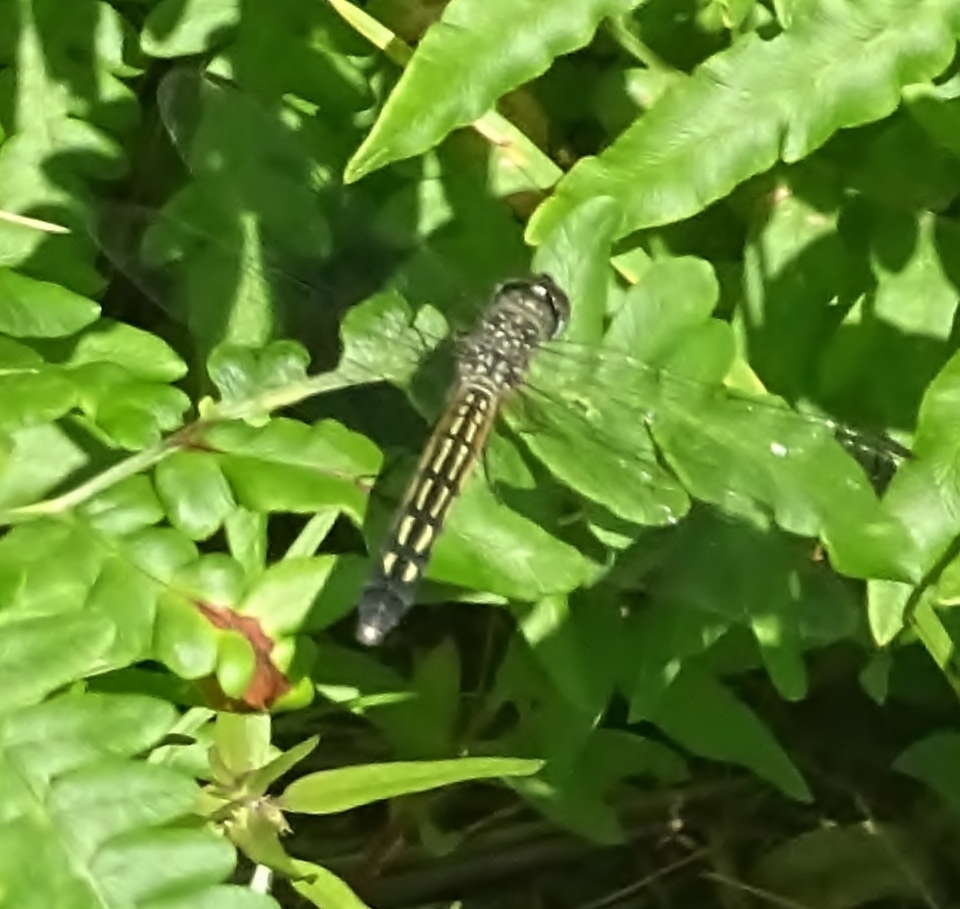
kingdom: Animalia
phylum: Arthropoda
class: Insecta
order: Odonata
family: Libellulidae
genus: Pachydiplax
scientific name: Pachydiplax longipennis
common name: Blue dasher
